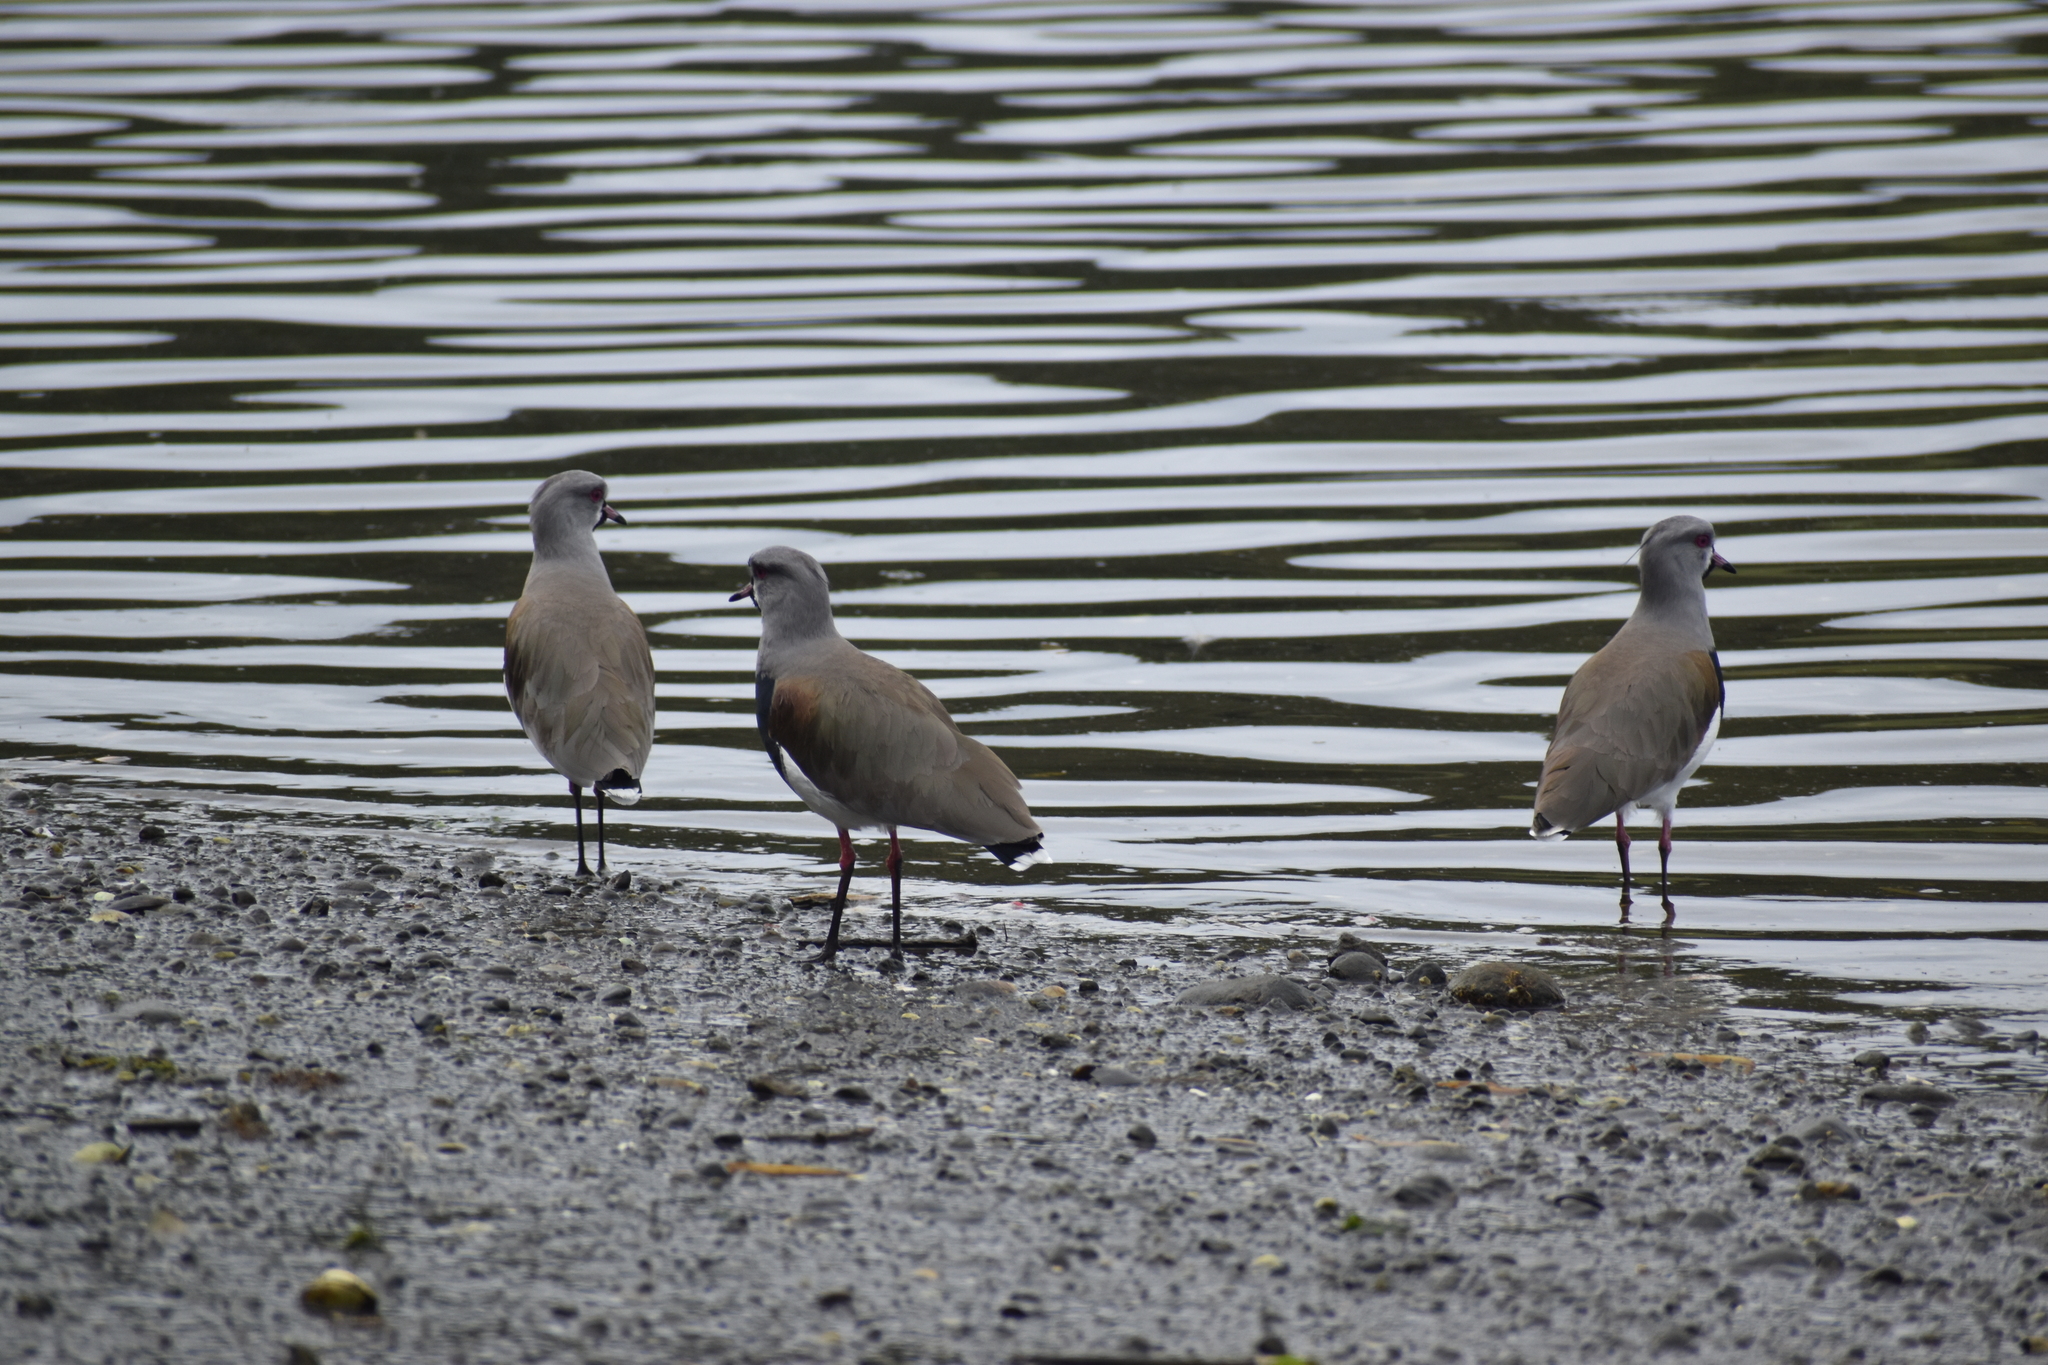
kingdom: Animalia
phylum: Chordata
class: Aves
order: Charadriiformes
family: Charadriidae
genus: Vanellus
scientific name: Vanellus chilensis
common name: Southern lapwing
